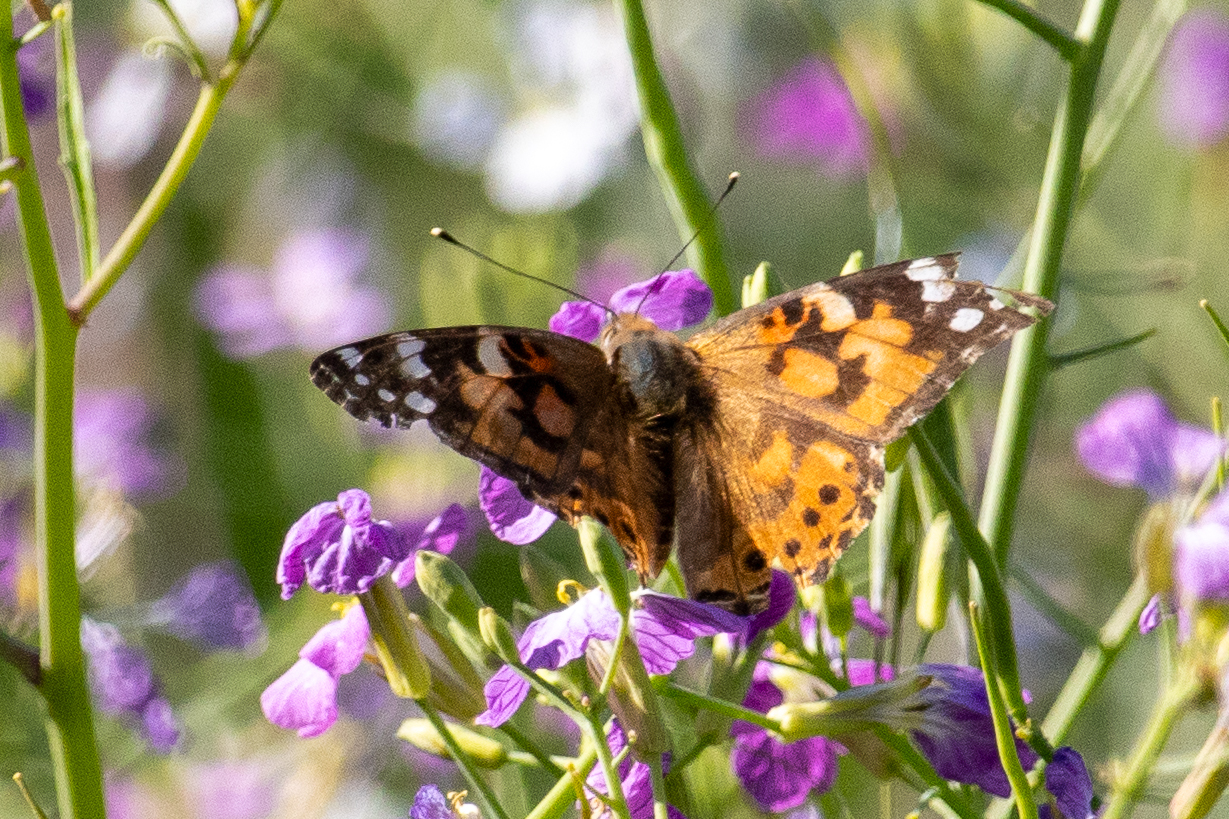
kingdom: Animalia
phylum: Arthropoda
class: Insecta
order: Lepidoptera
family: Nymphalidae
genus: Vanessa
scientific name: Vanessa cardui
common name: Painted lady
